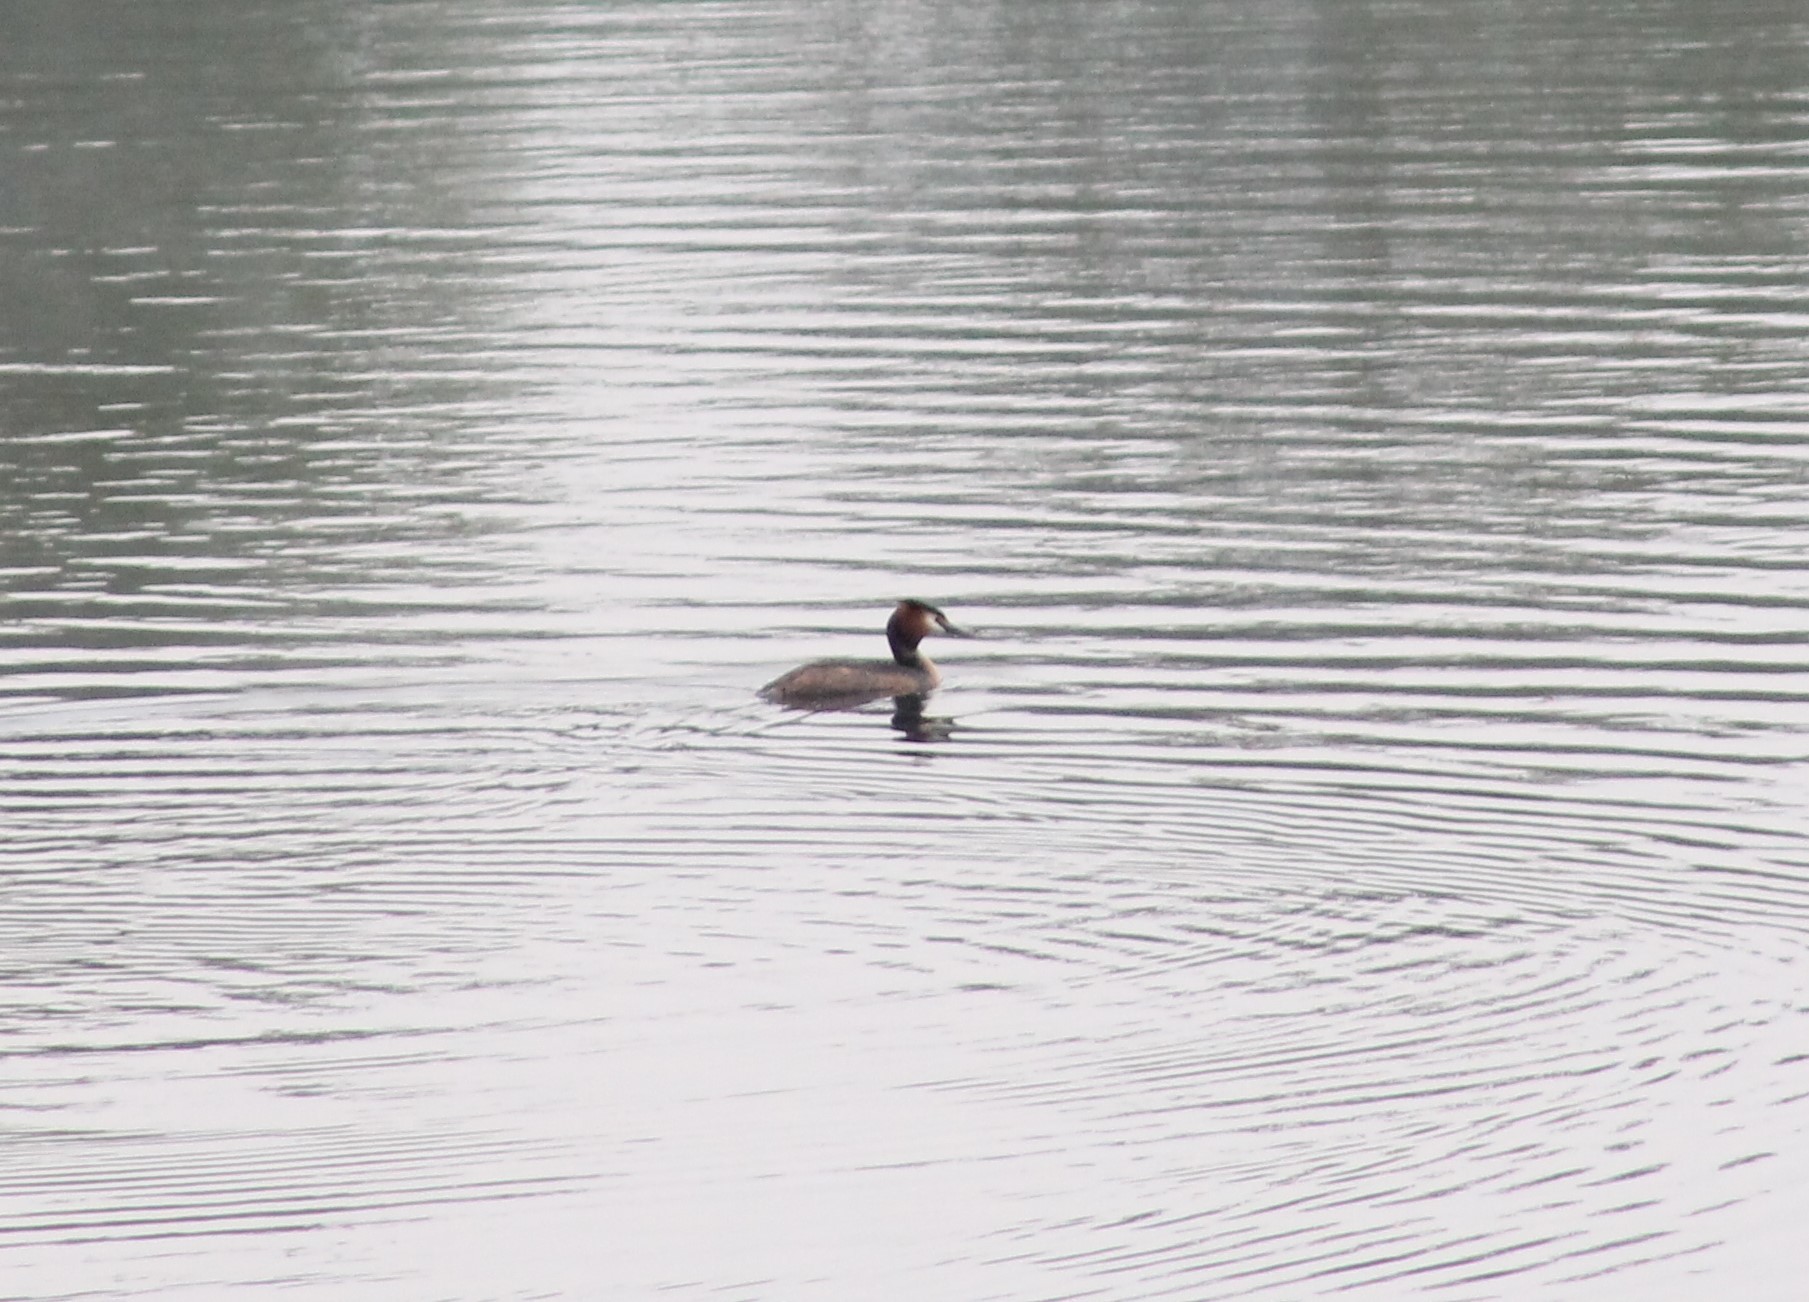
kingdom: Animalia
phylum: Chordata
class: Aves
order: Podicipediformes
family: Podicipedidae
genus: Podiceps
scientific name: Podiceps cristatus
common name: Great crested grebe
